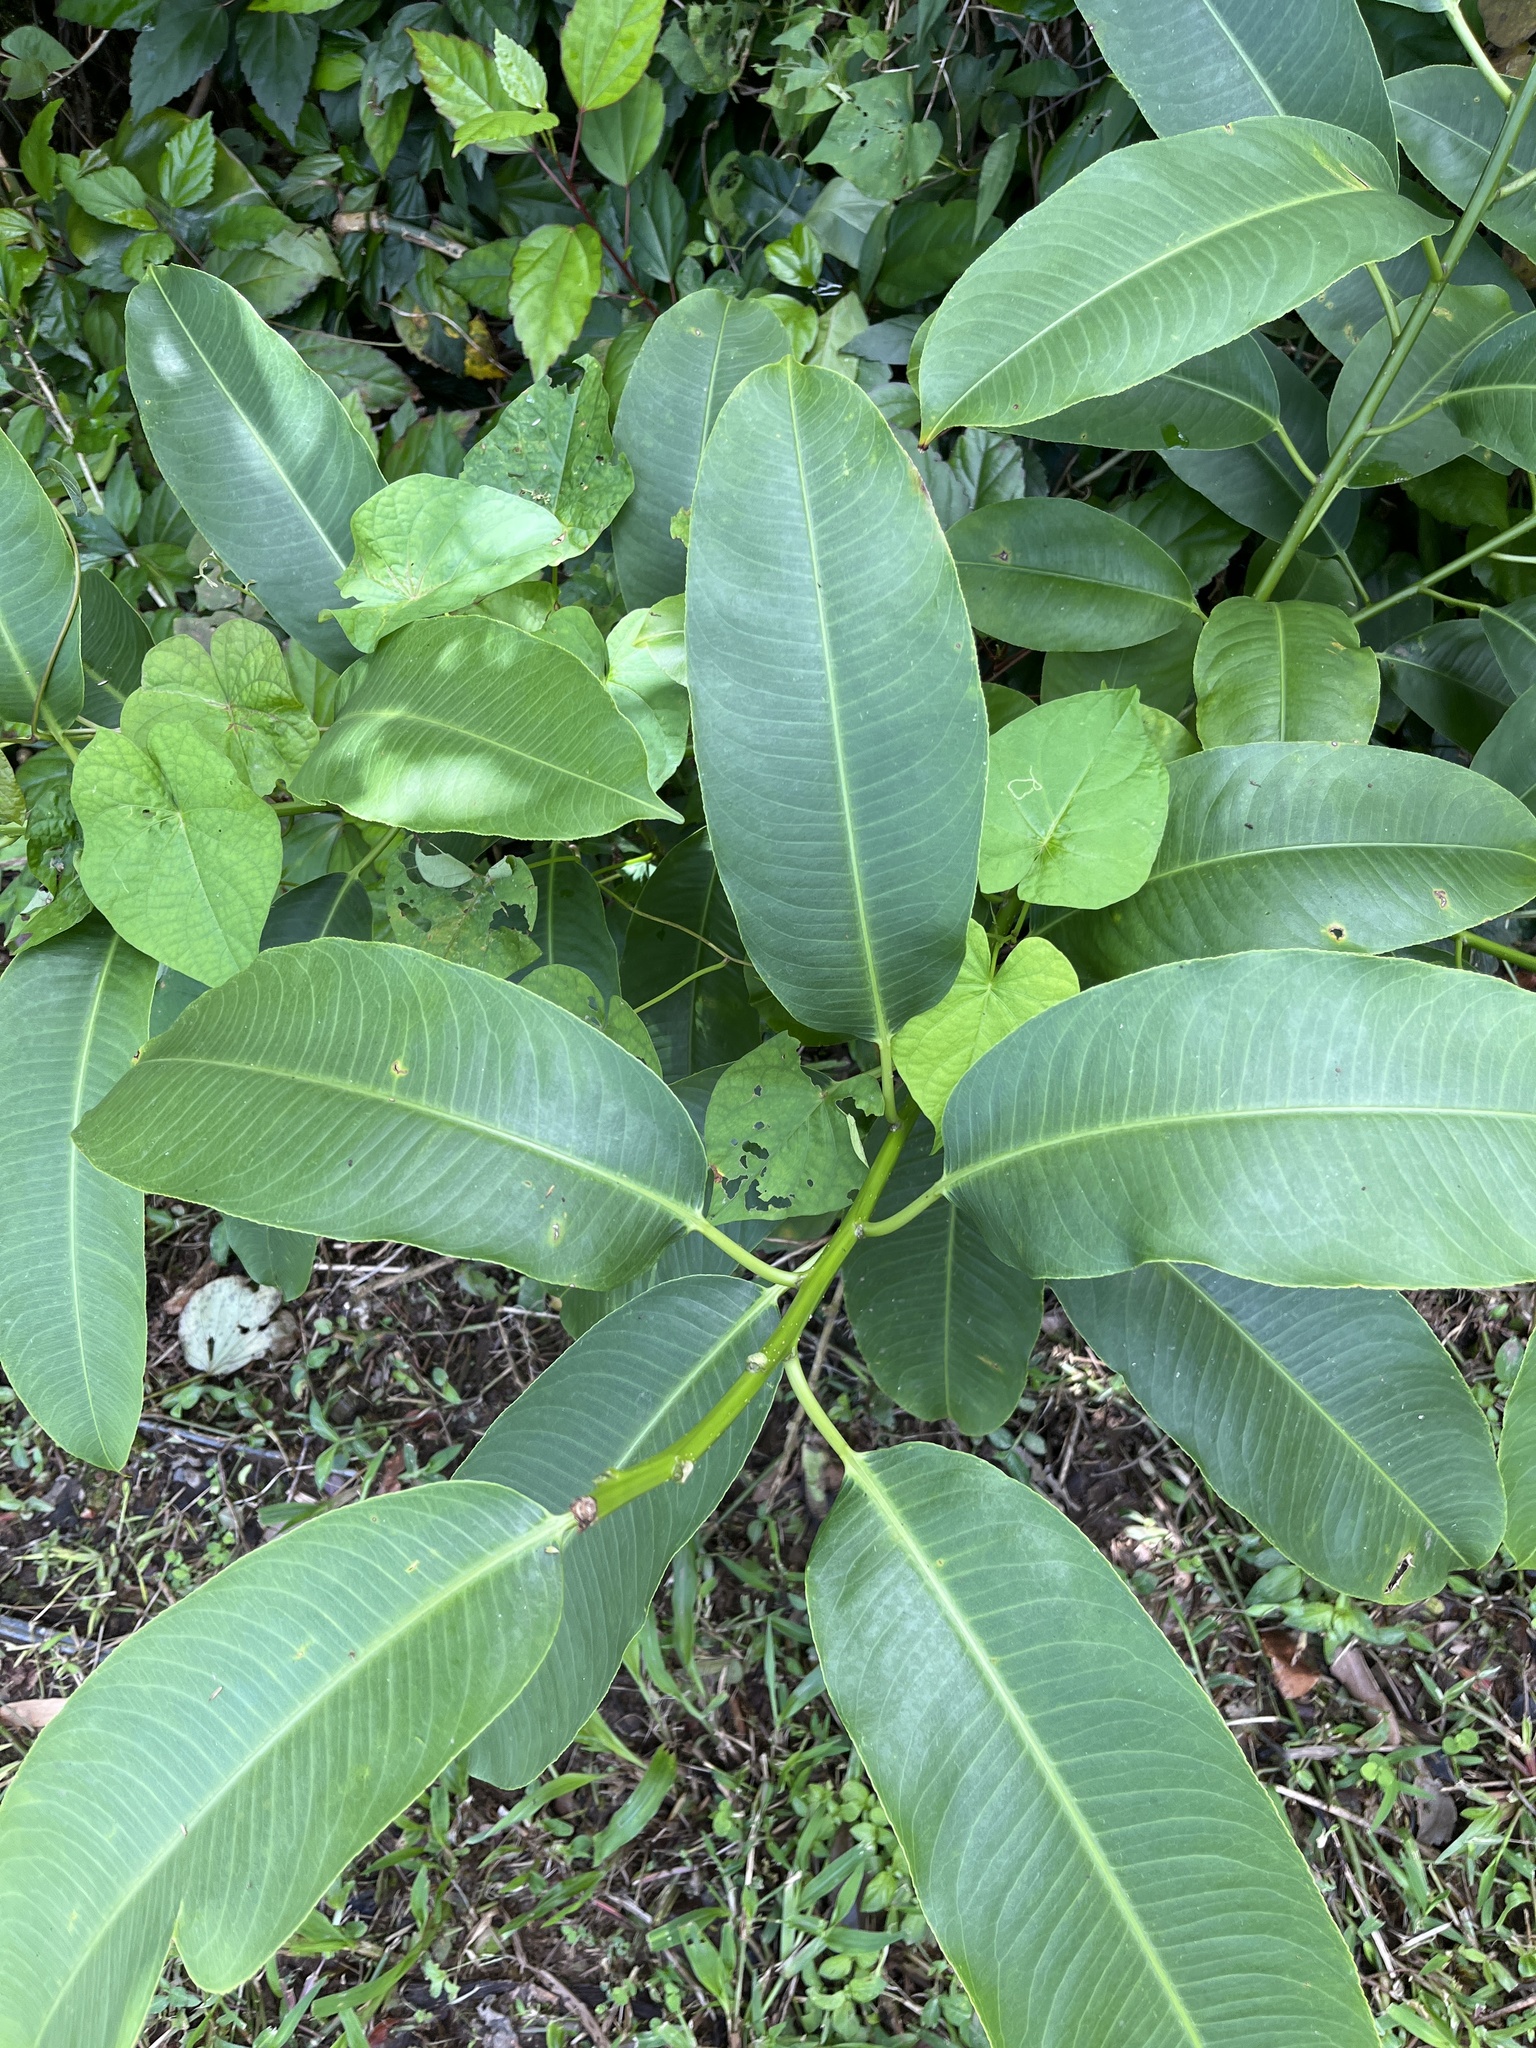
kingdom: Plantae
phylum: Tracheophyta
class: Magnoliopsida
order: Malpighiales
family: Euphorbiaceae
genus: Sapium
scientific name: Sapium laurifolium
